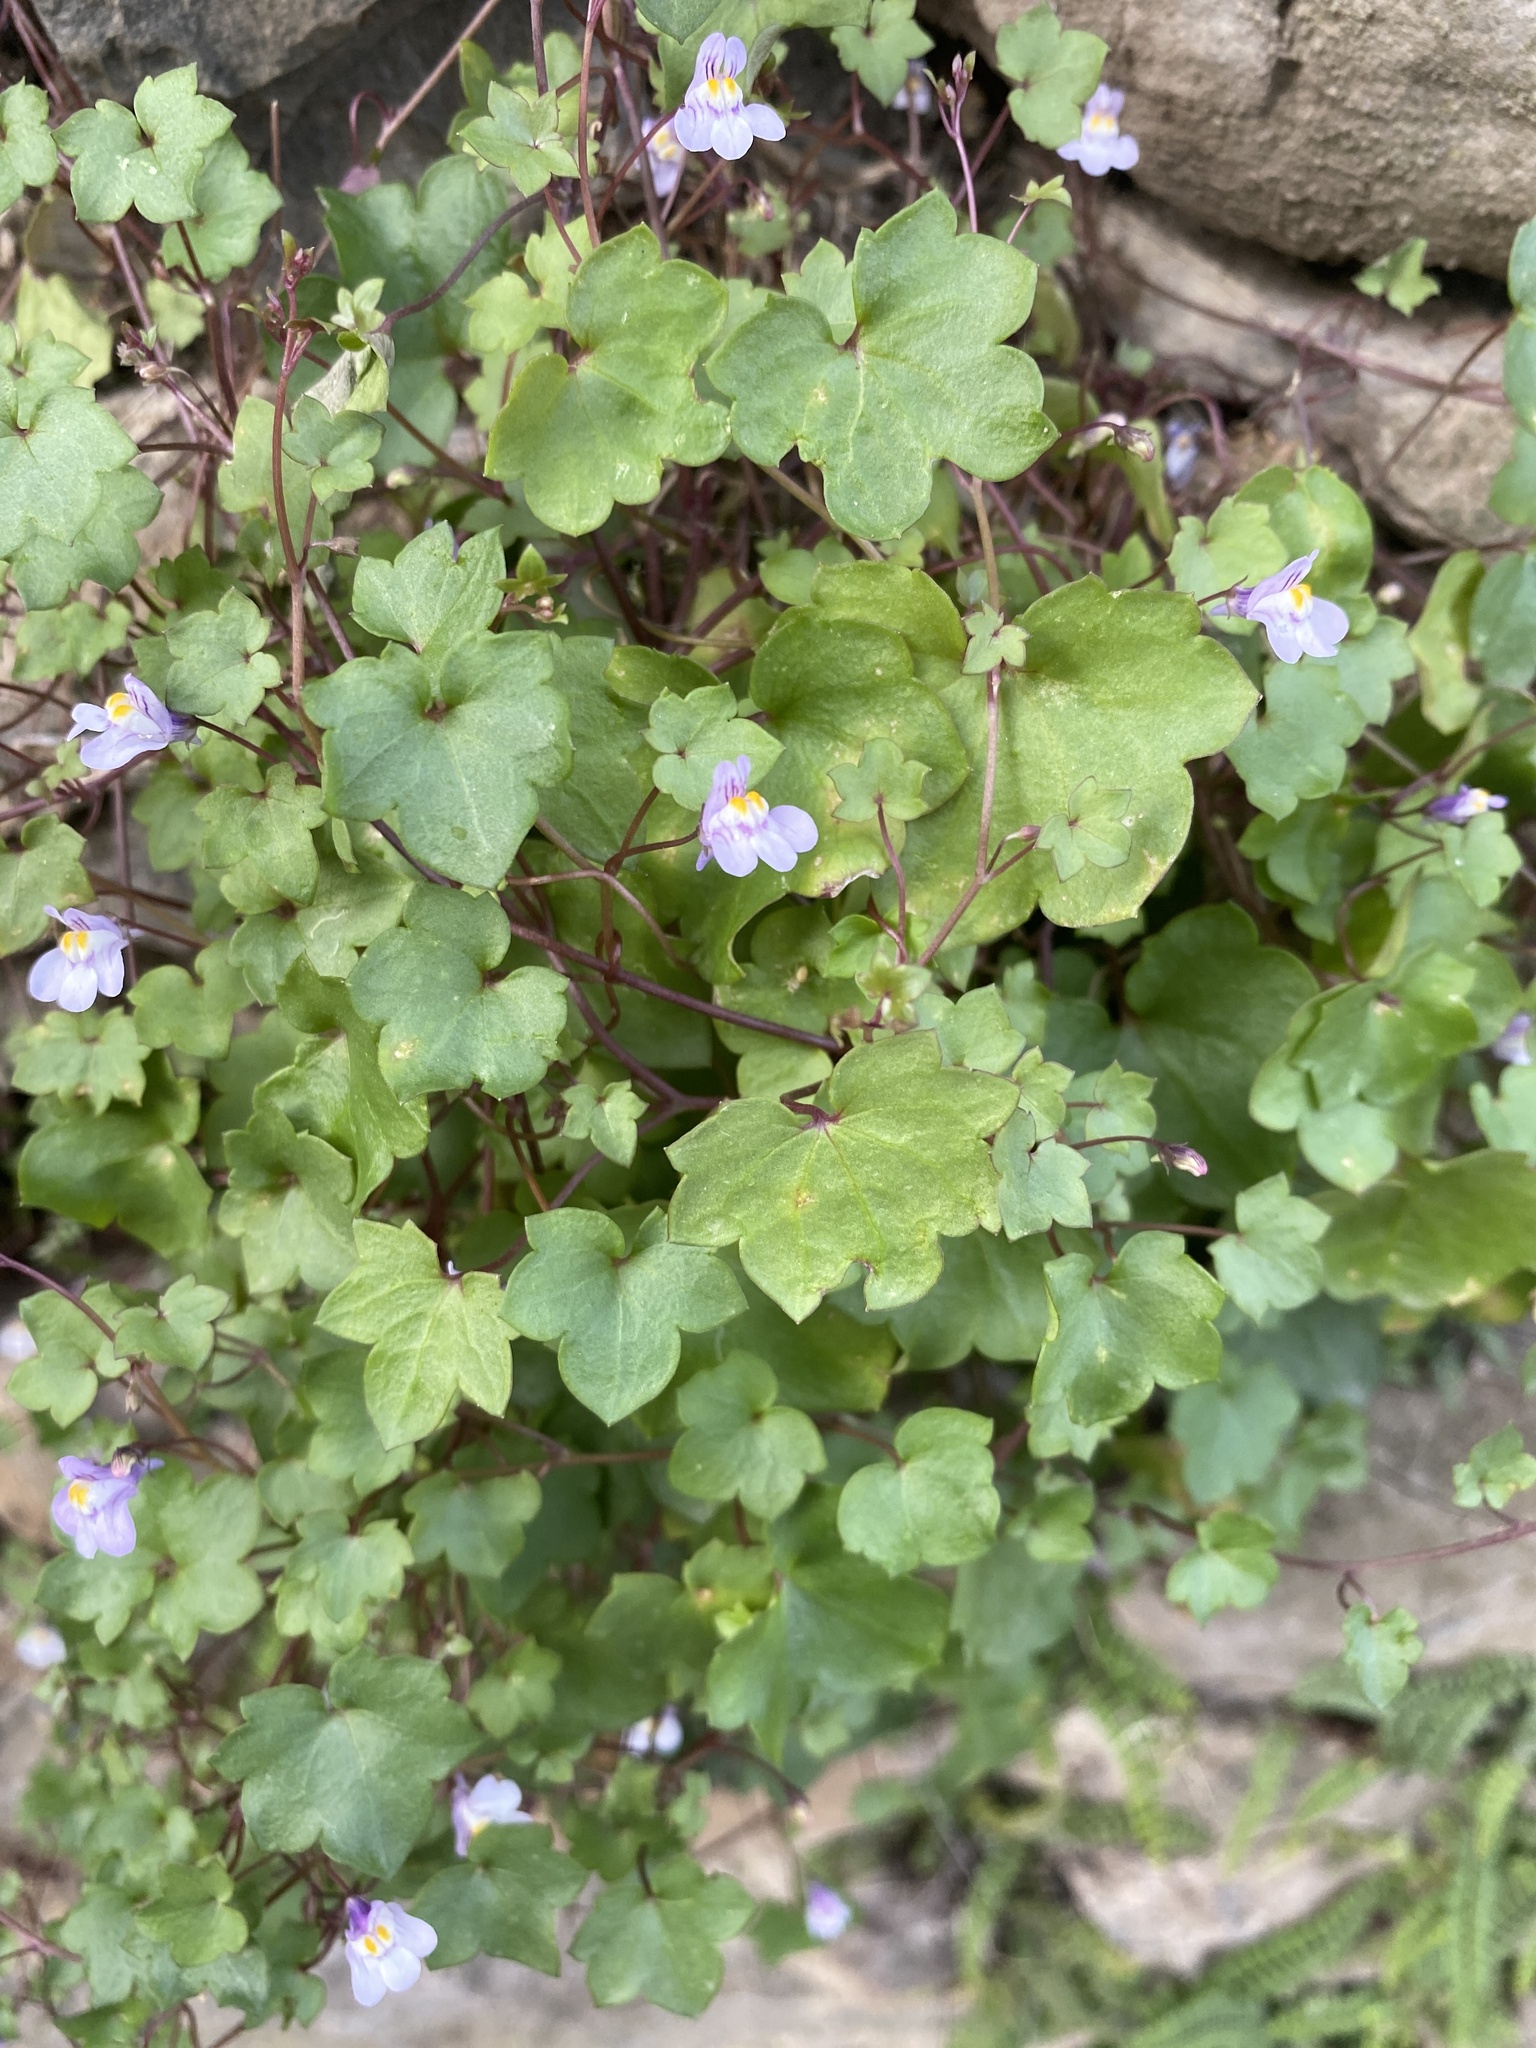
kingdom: Plantae
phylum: Tracheophyta
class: Magnoliopsida
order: Lamiales
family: Plantaginaceae
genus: Cymbalaria
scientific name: Cymbalaria muralis
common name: Ivy-leaved toadflax
